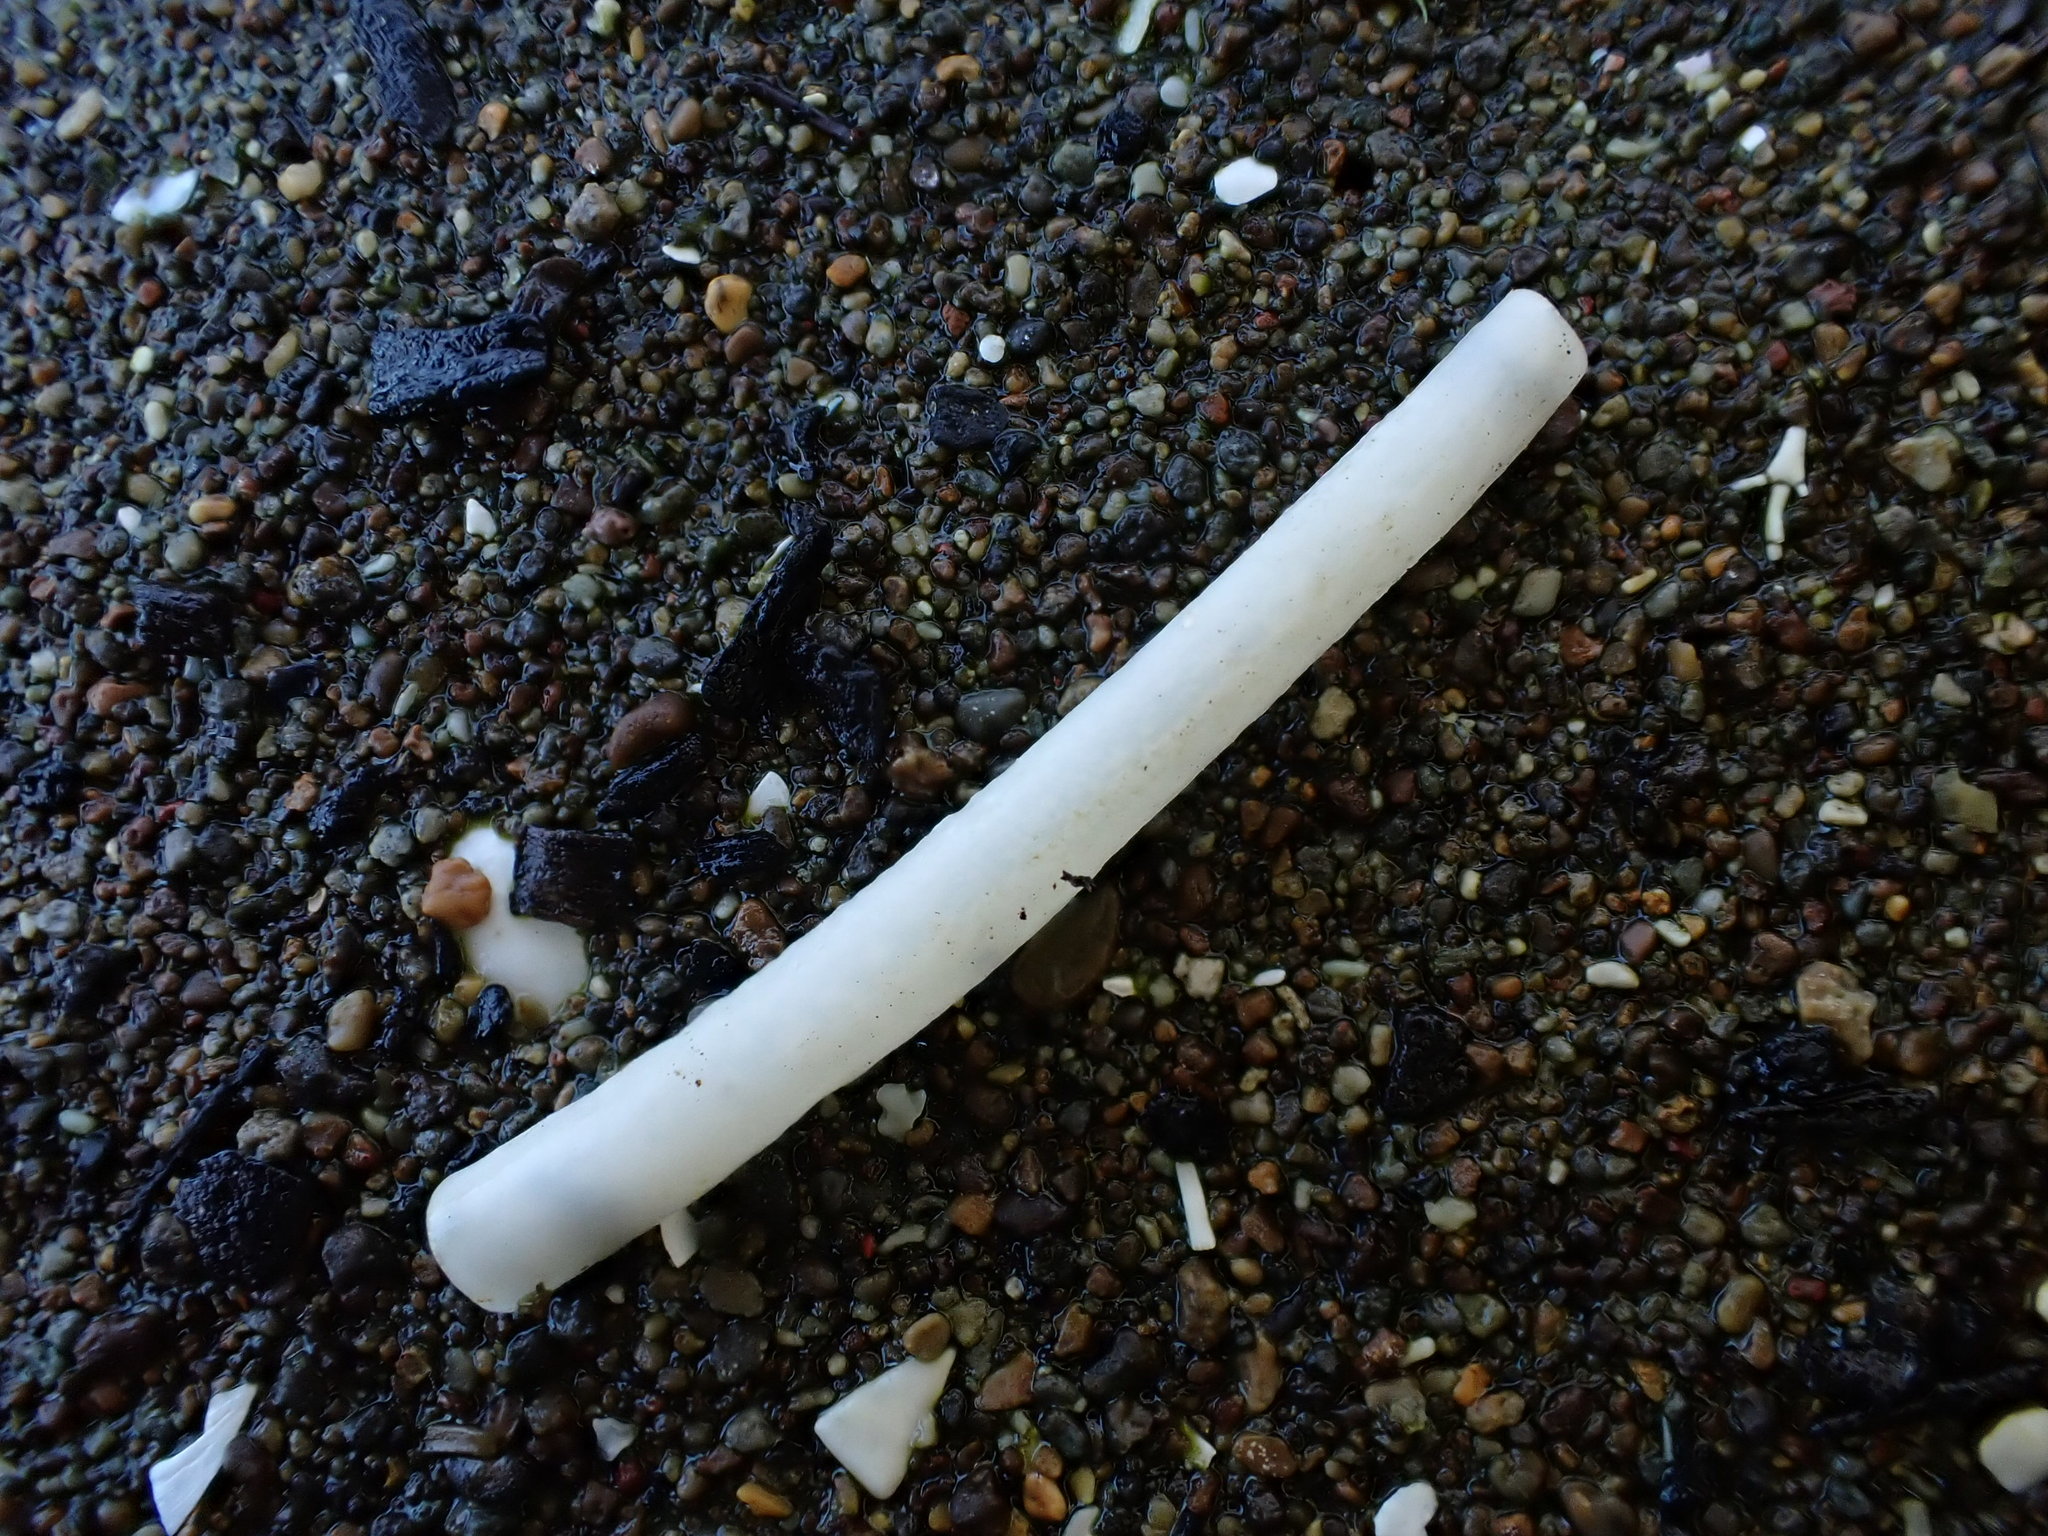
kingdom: Animalia
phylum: Mollusca
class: Scaphopoda
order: Dentaliida
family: Dentaliidae
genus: Antalis
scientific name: Antalis nana
